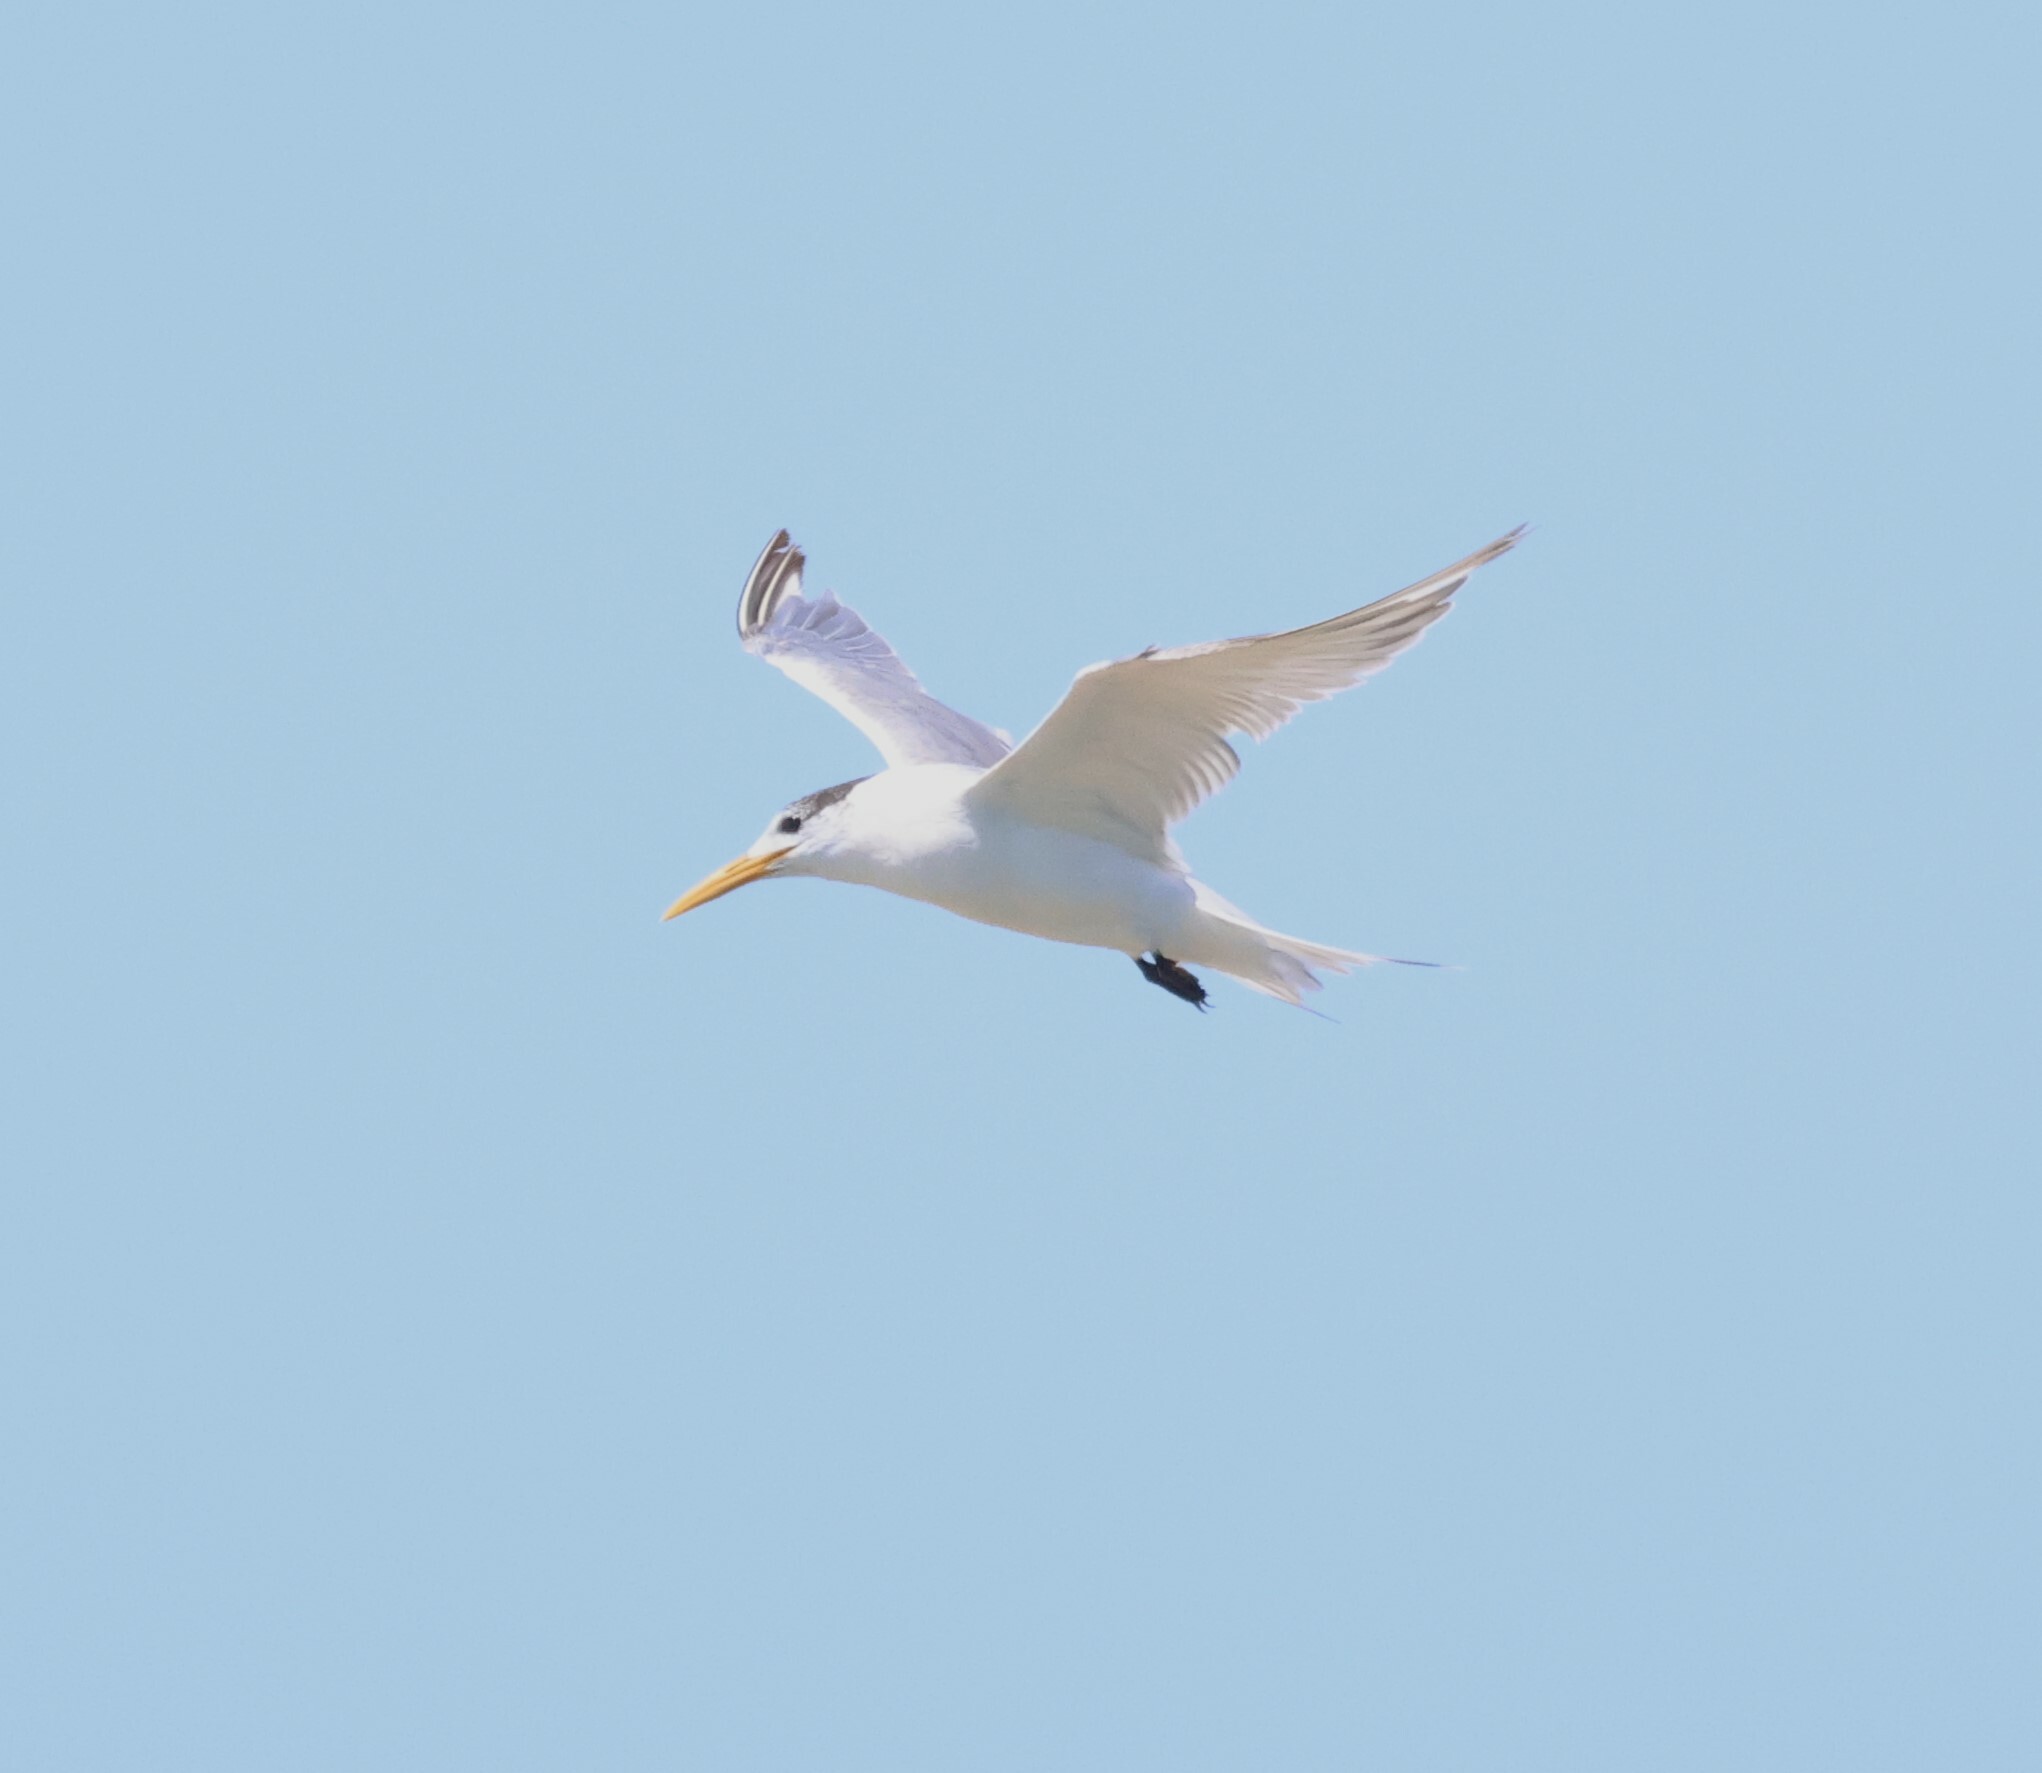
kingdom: Animalia
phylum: Chordata
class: Aves
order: Charadriiformes
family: Laridae
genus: Thalasseus
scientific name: Thalasseus bergii
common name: Greater crested tern
